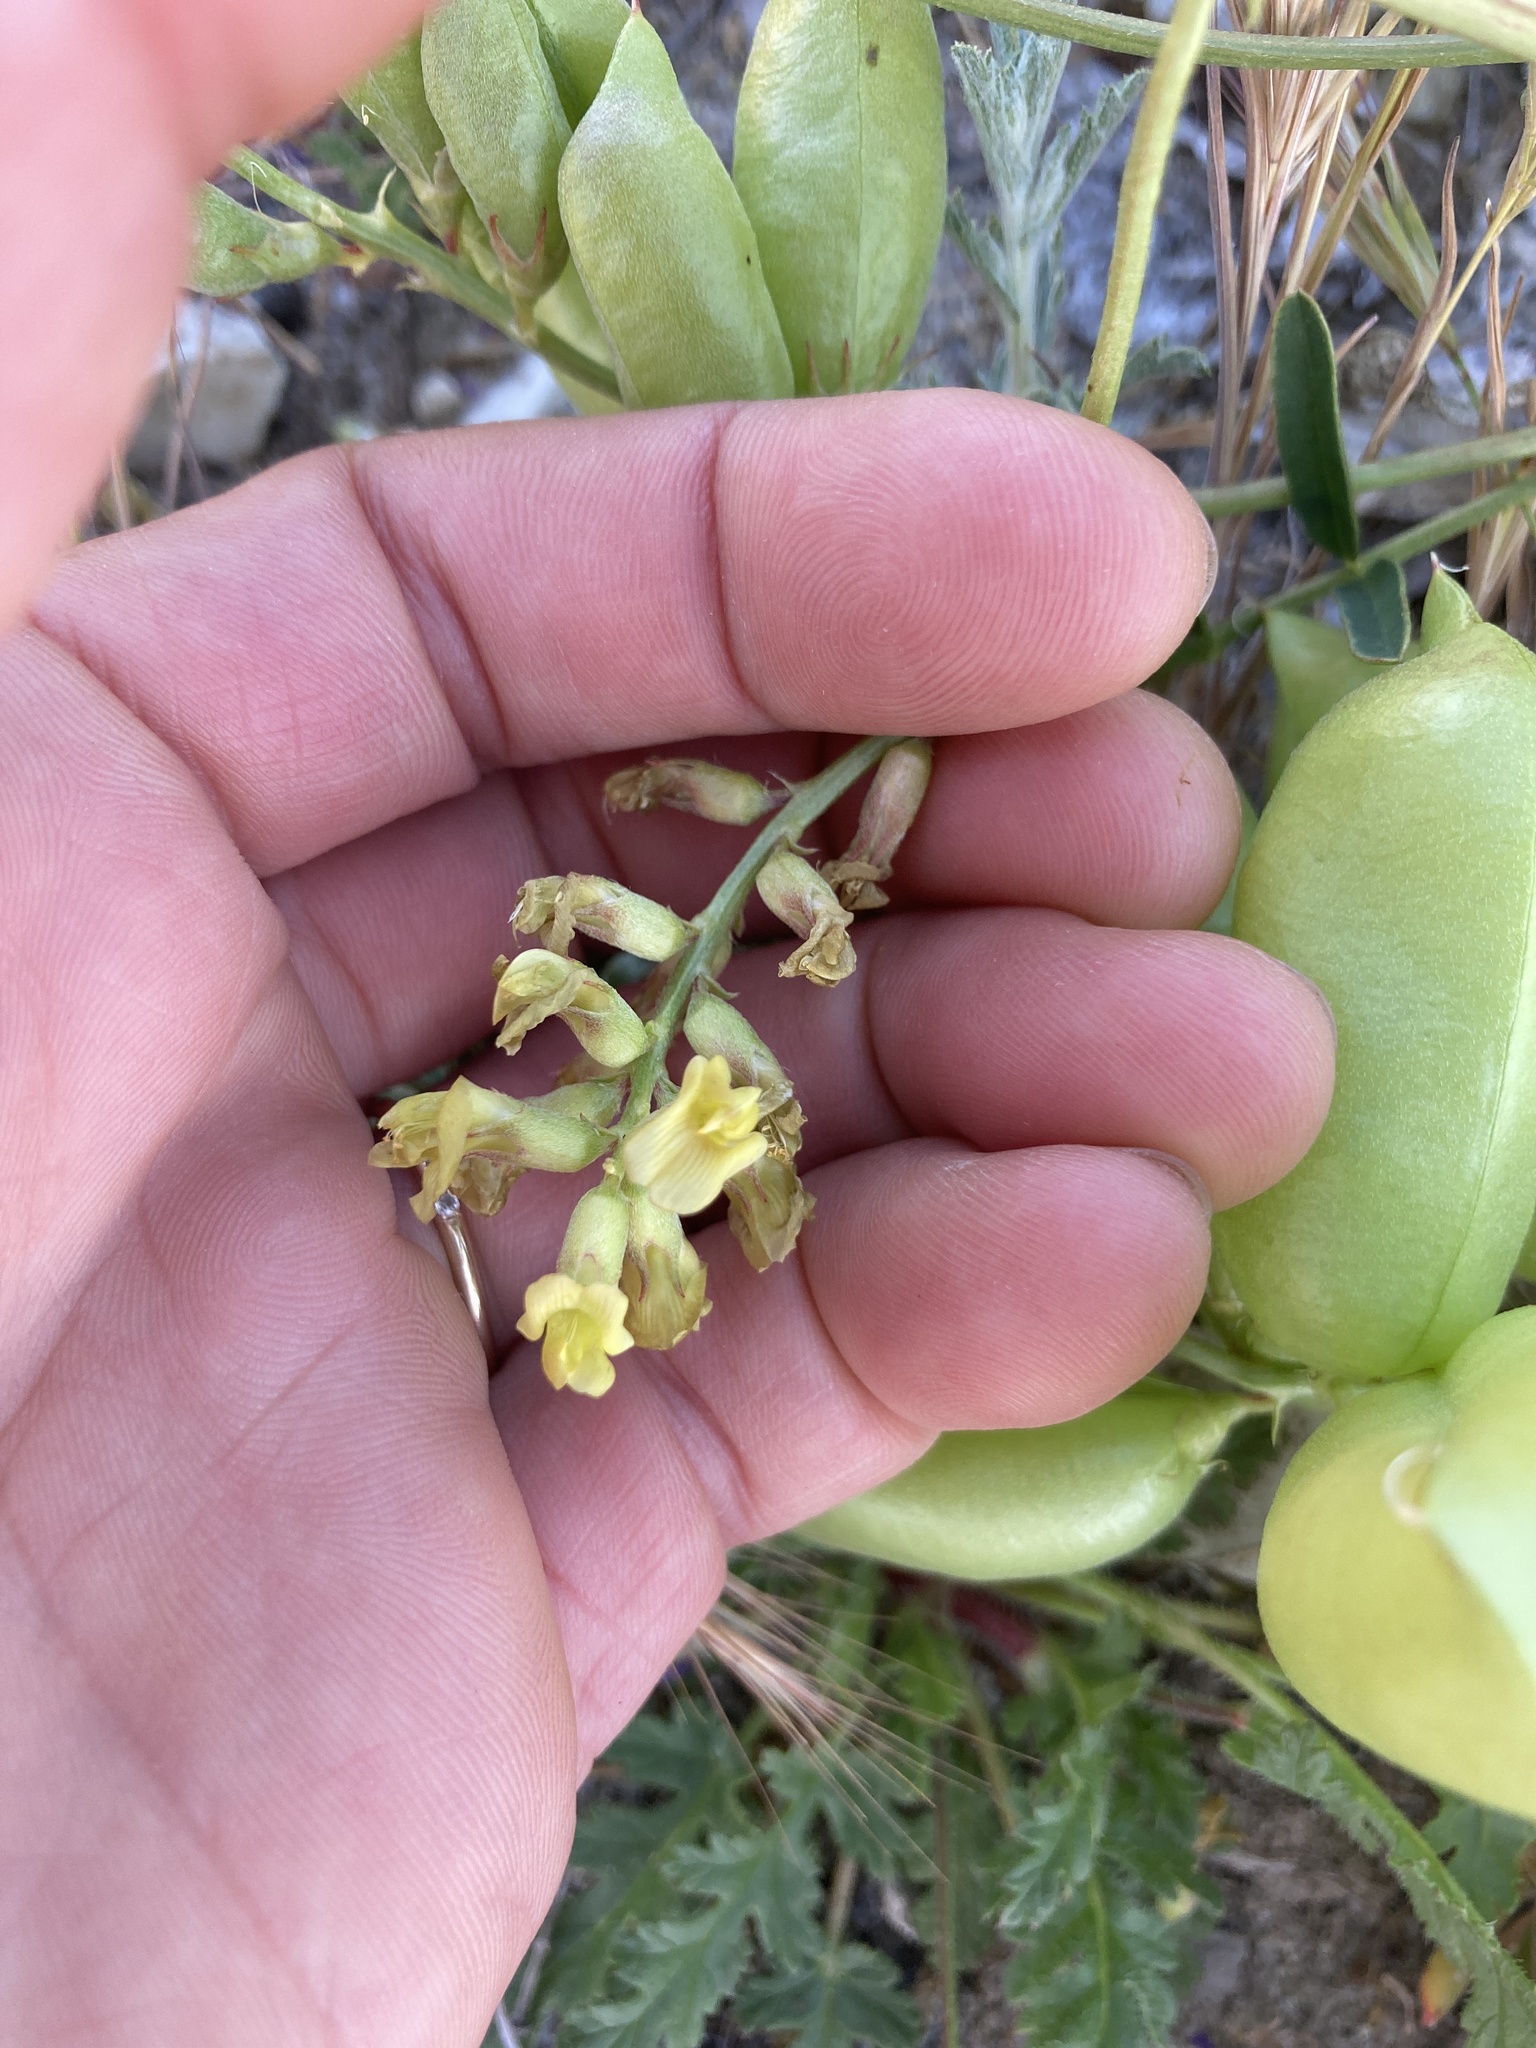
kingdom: Plantae
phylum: Tracheophyta
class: Magnoliopsida
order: Fabales
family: Fabaceae
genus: Astragalus
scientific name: Astragalus douglasii
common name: Jacumba milkvetch
